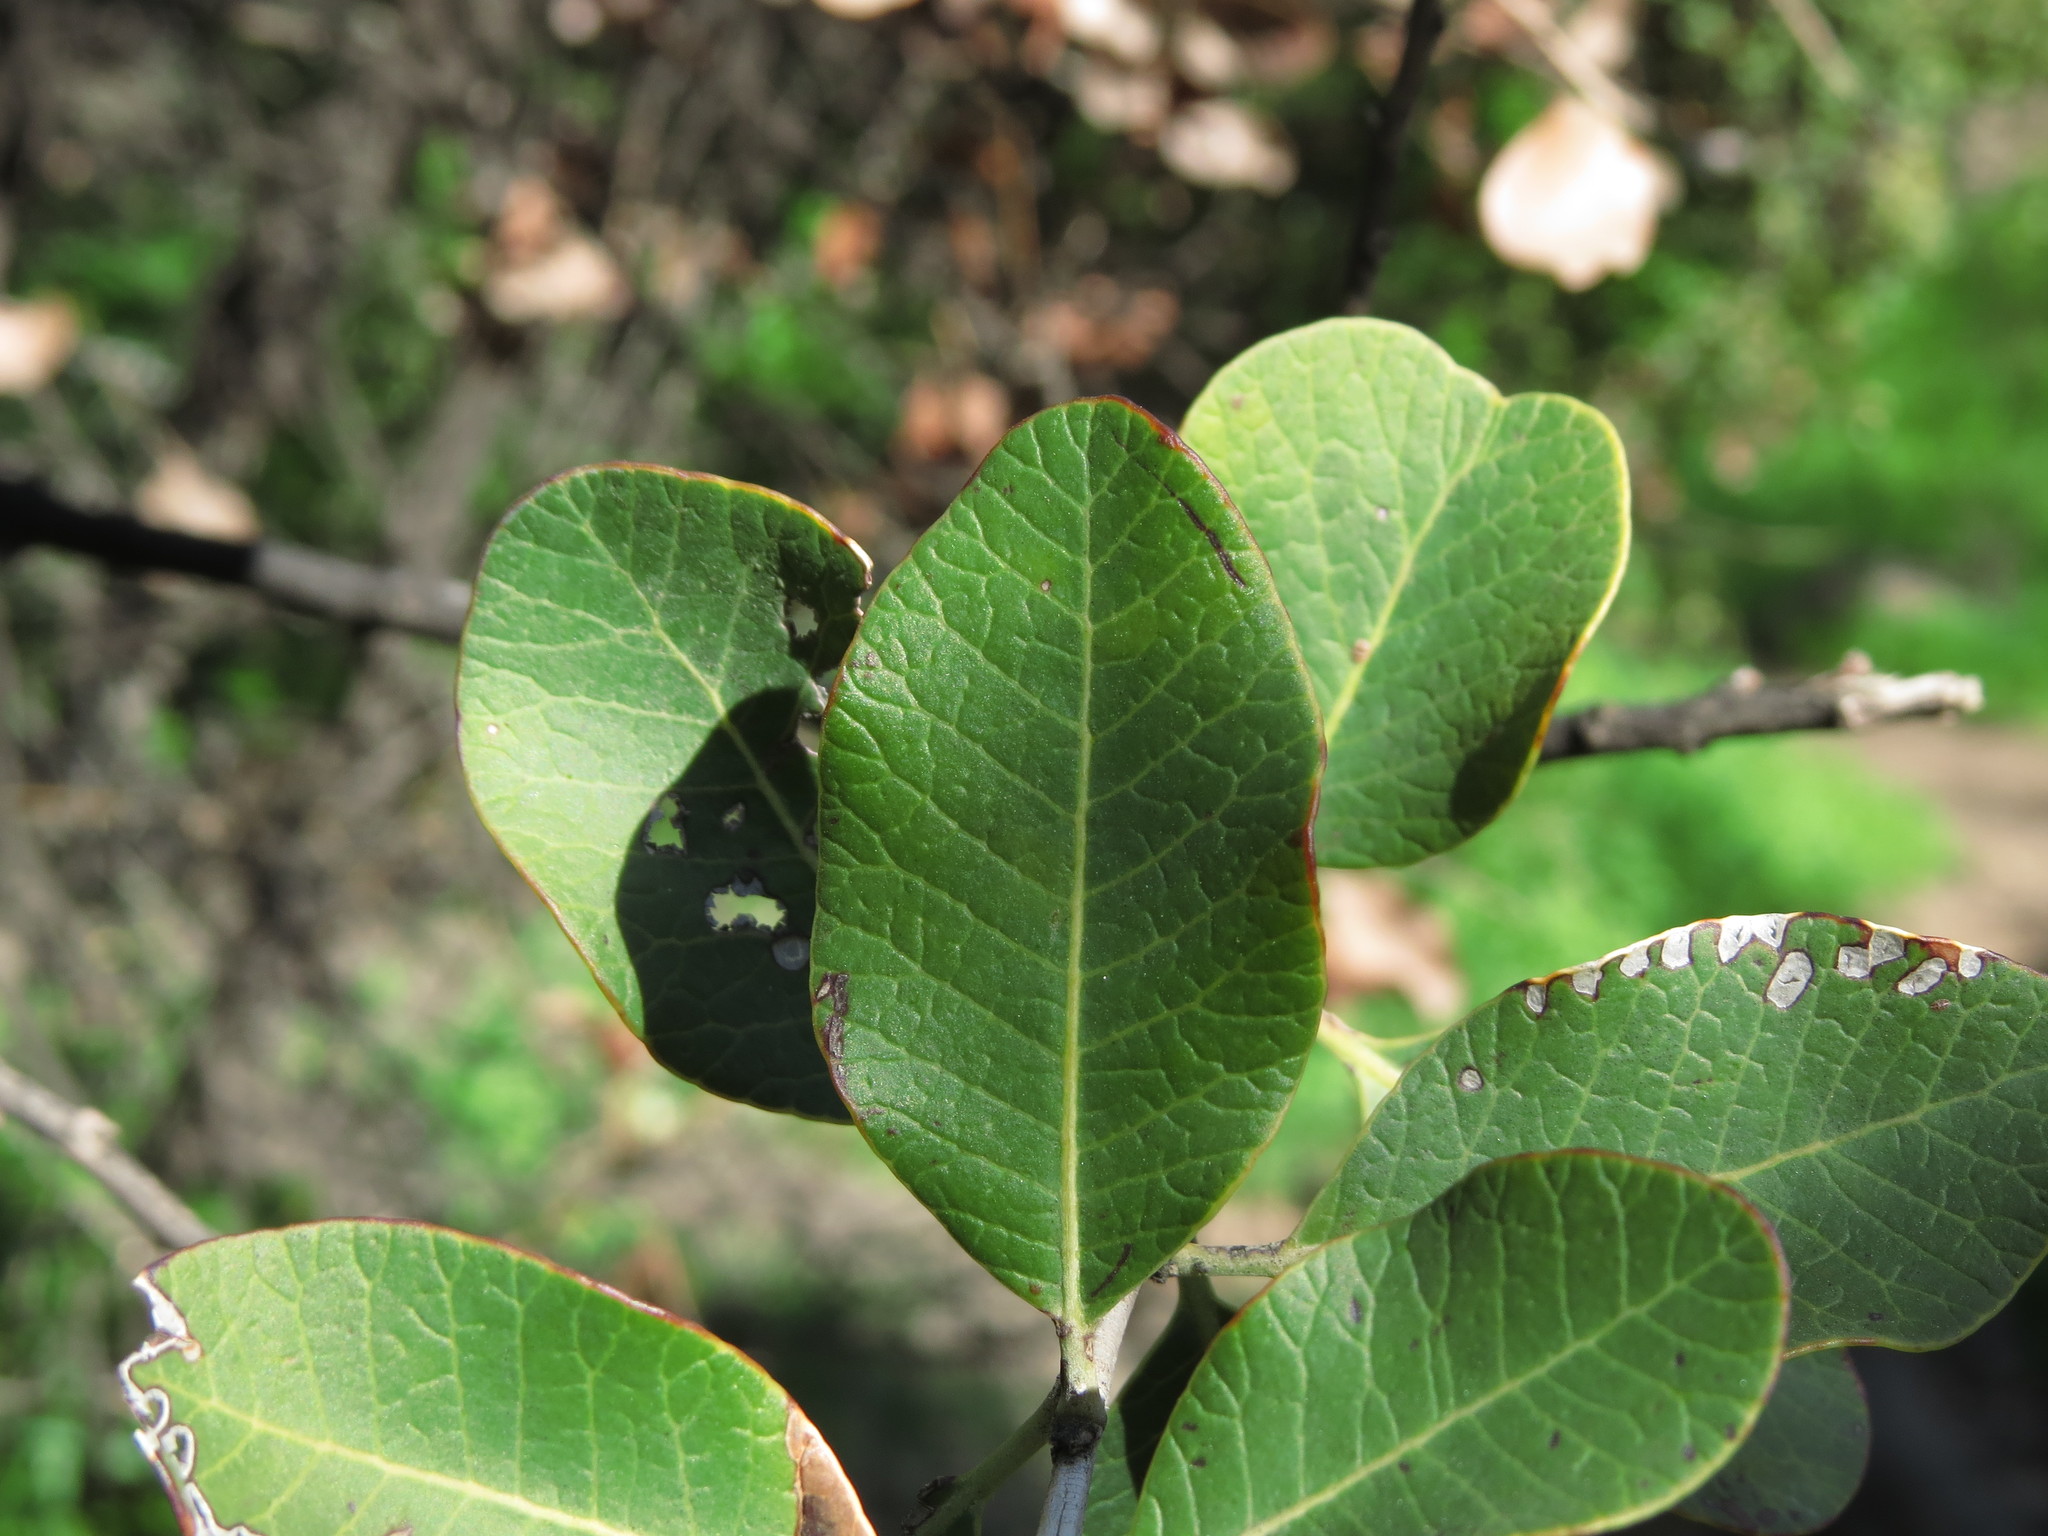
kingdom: Plantae
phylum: Tracheophyta
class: Magnoliopsida
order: Sapindales
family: Anacardiaceae
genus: Lithraea
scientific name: Lithraea caustica
